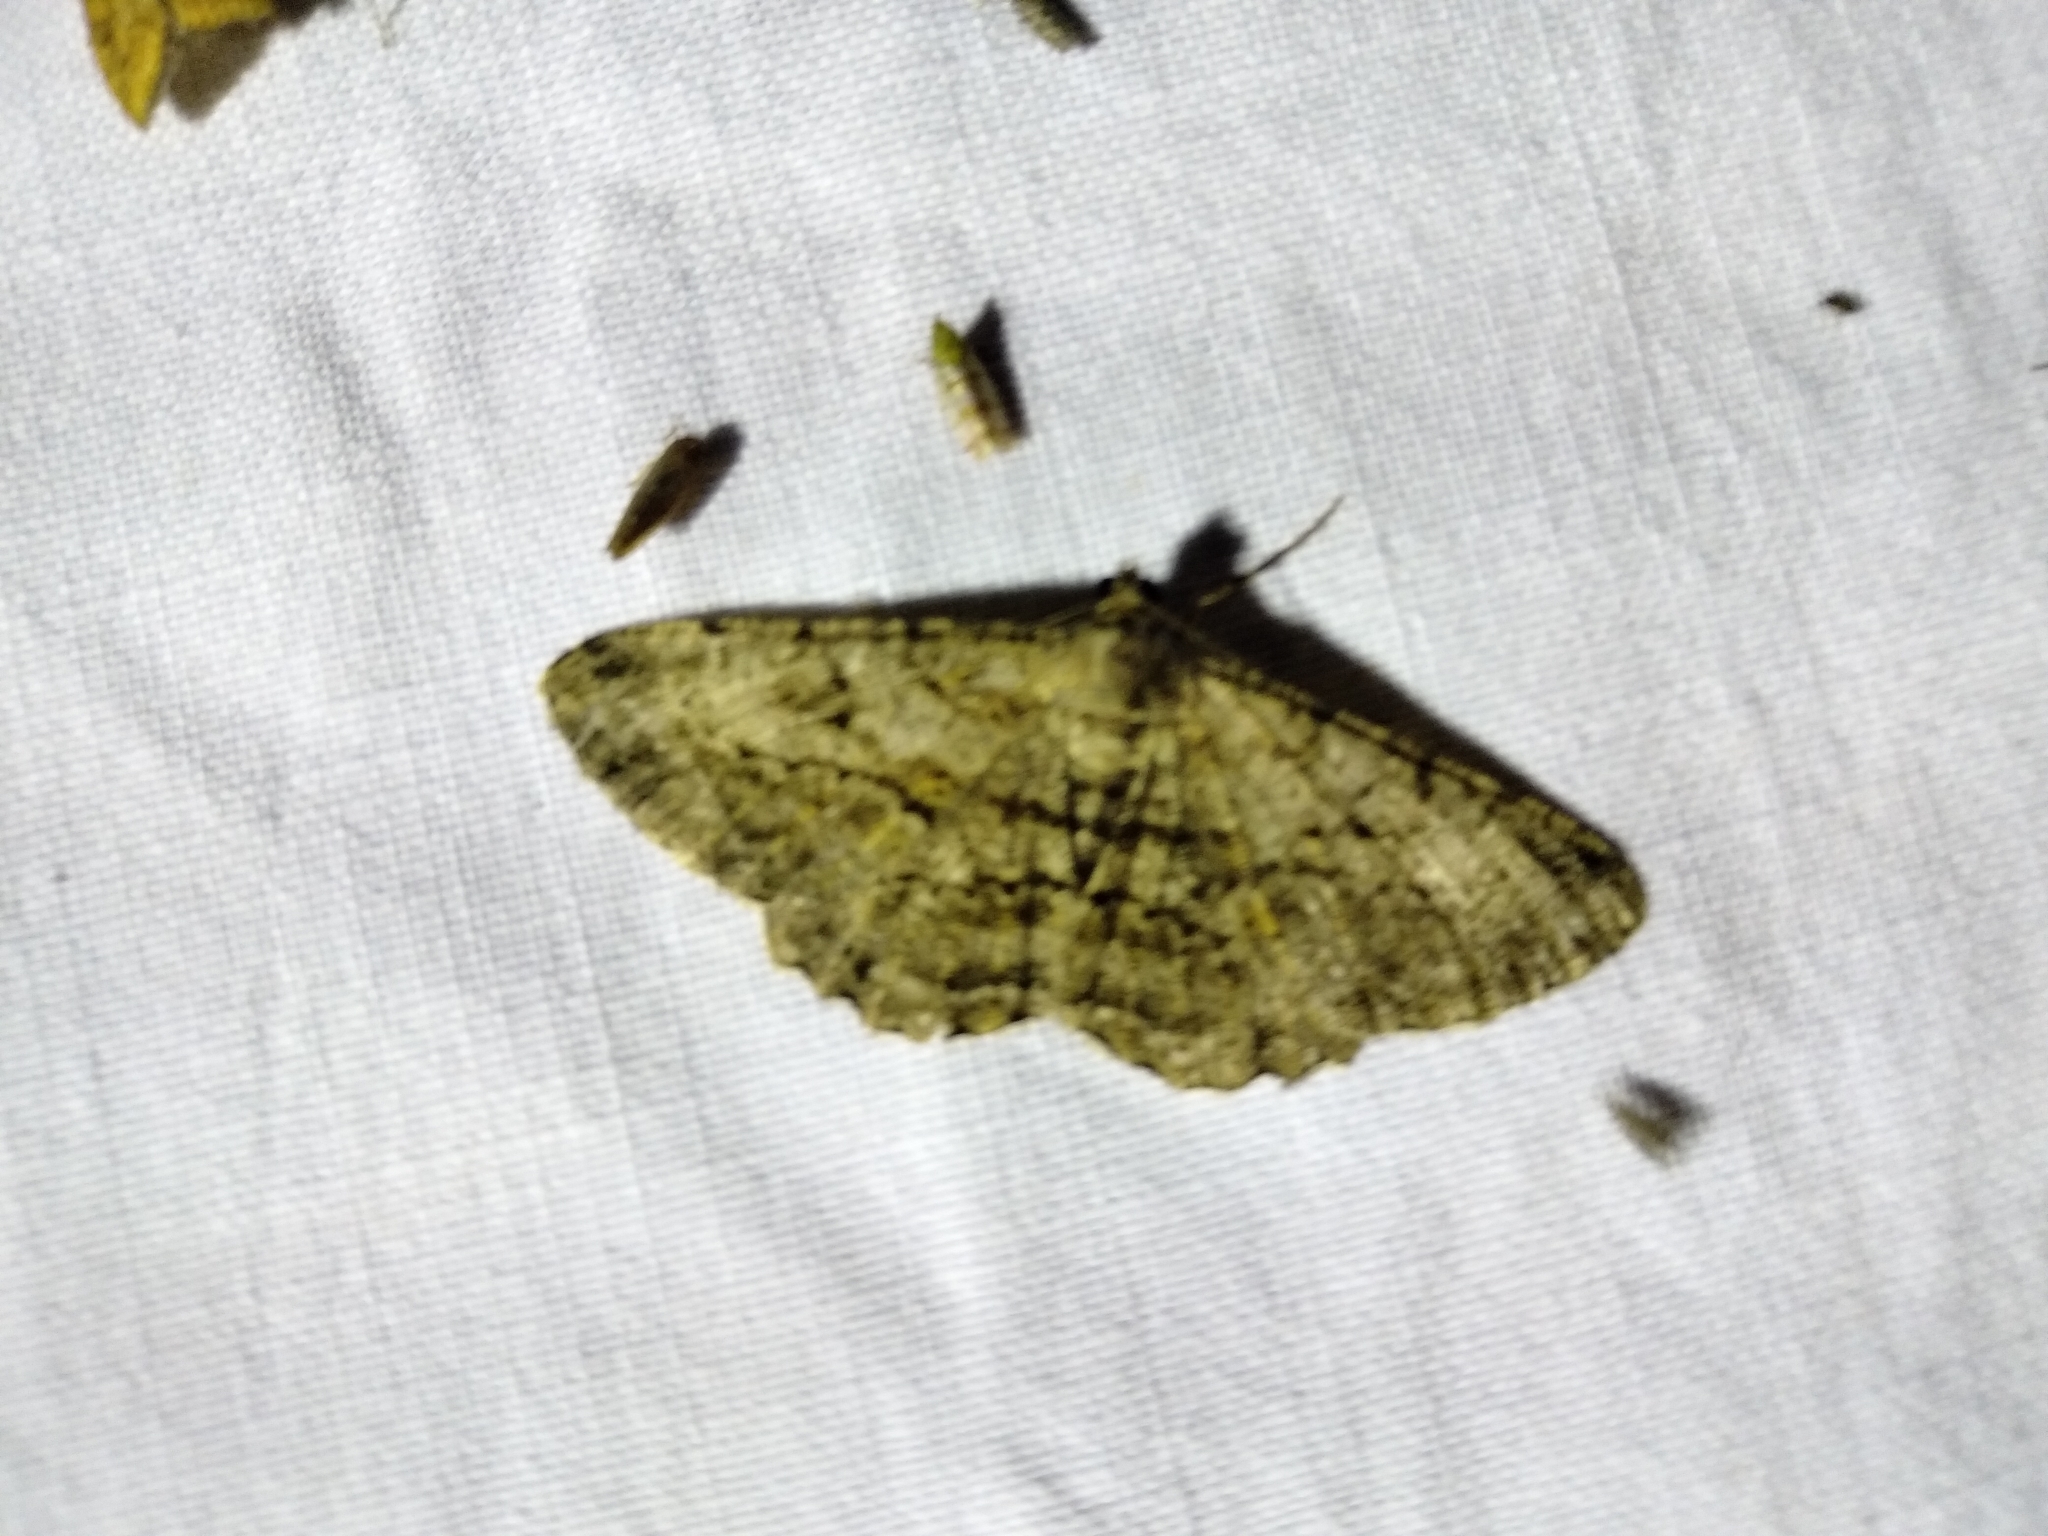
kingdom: Animalia
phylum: Arthropoda
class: Insecta
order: Lepidoptera
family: Geometridae
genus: Peribatodes
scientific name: Peribatodes rhomboidaria
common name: Willow beauty
